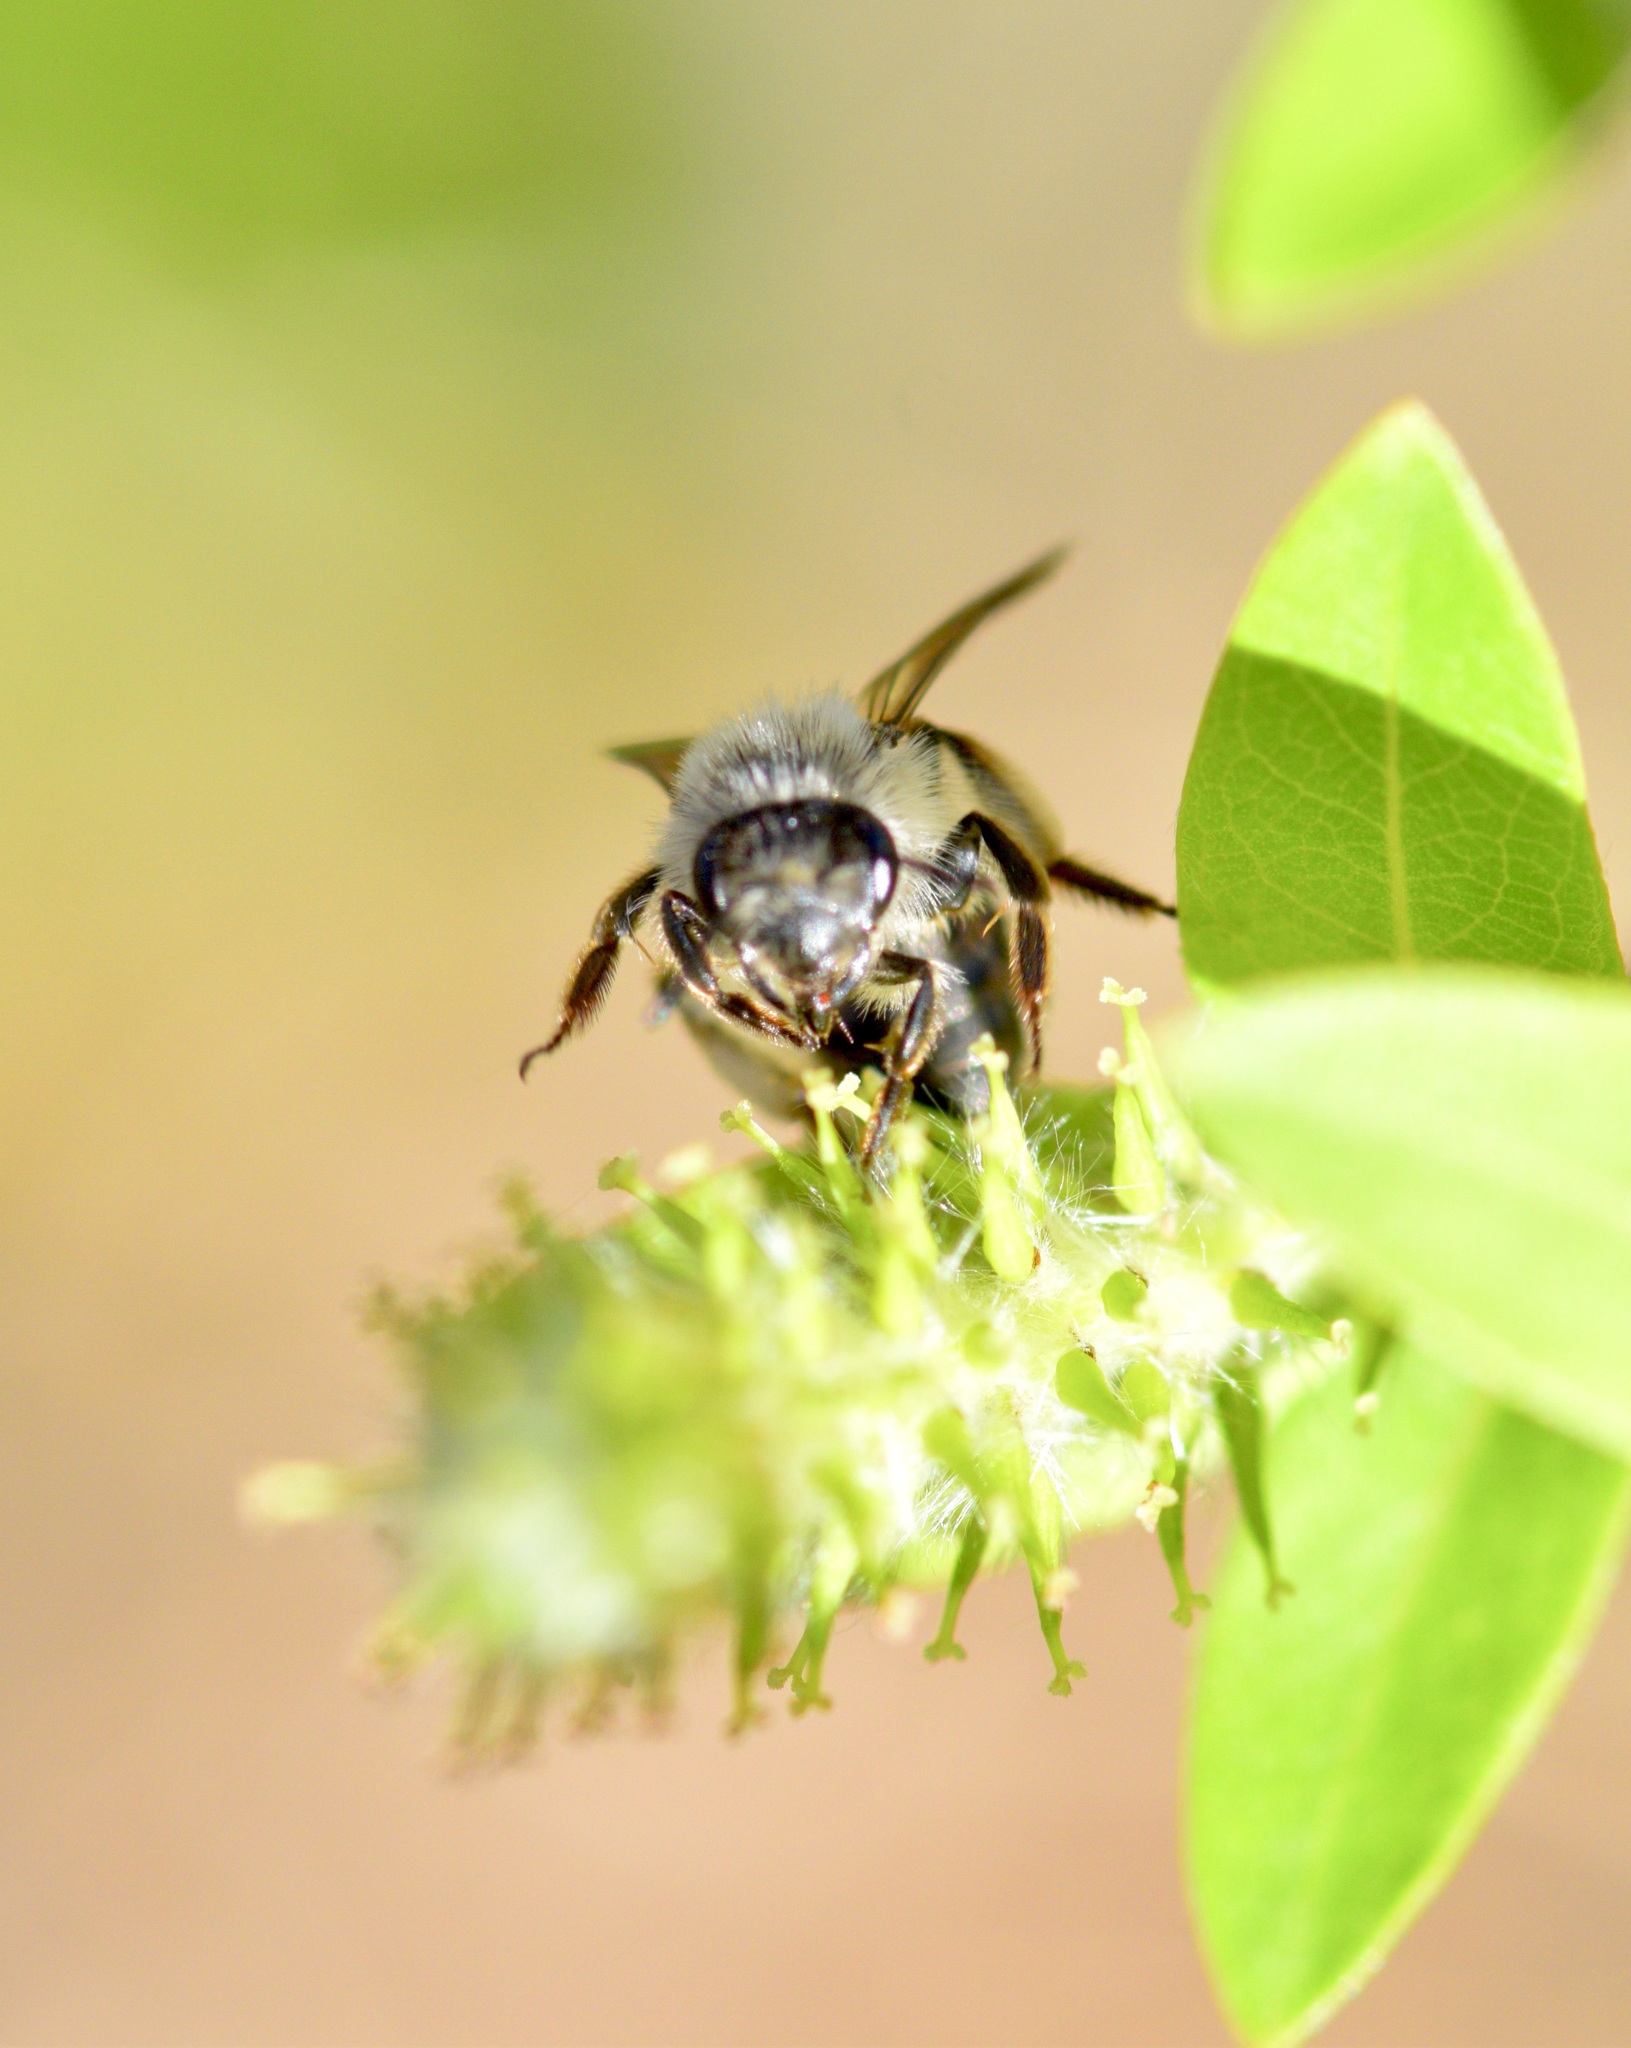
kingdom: Animalia
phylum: Arthropoda
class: Insecta
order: Hymenoptera
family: Andrenidae
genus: Andrena
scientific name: Andrena frigida
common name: Frigid mining bee
